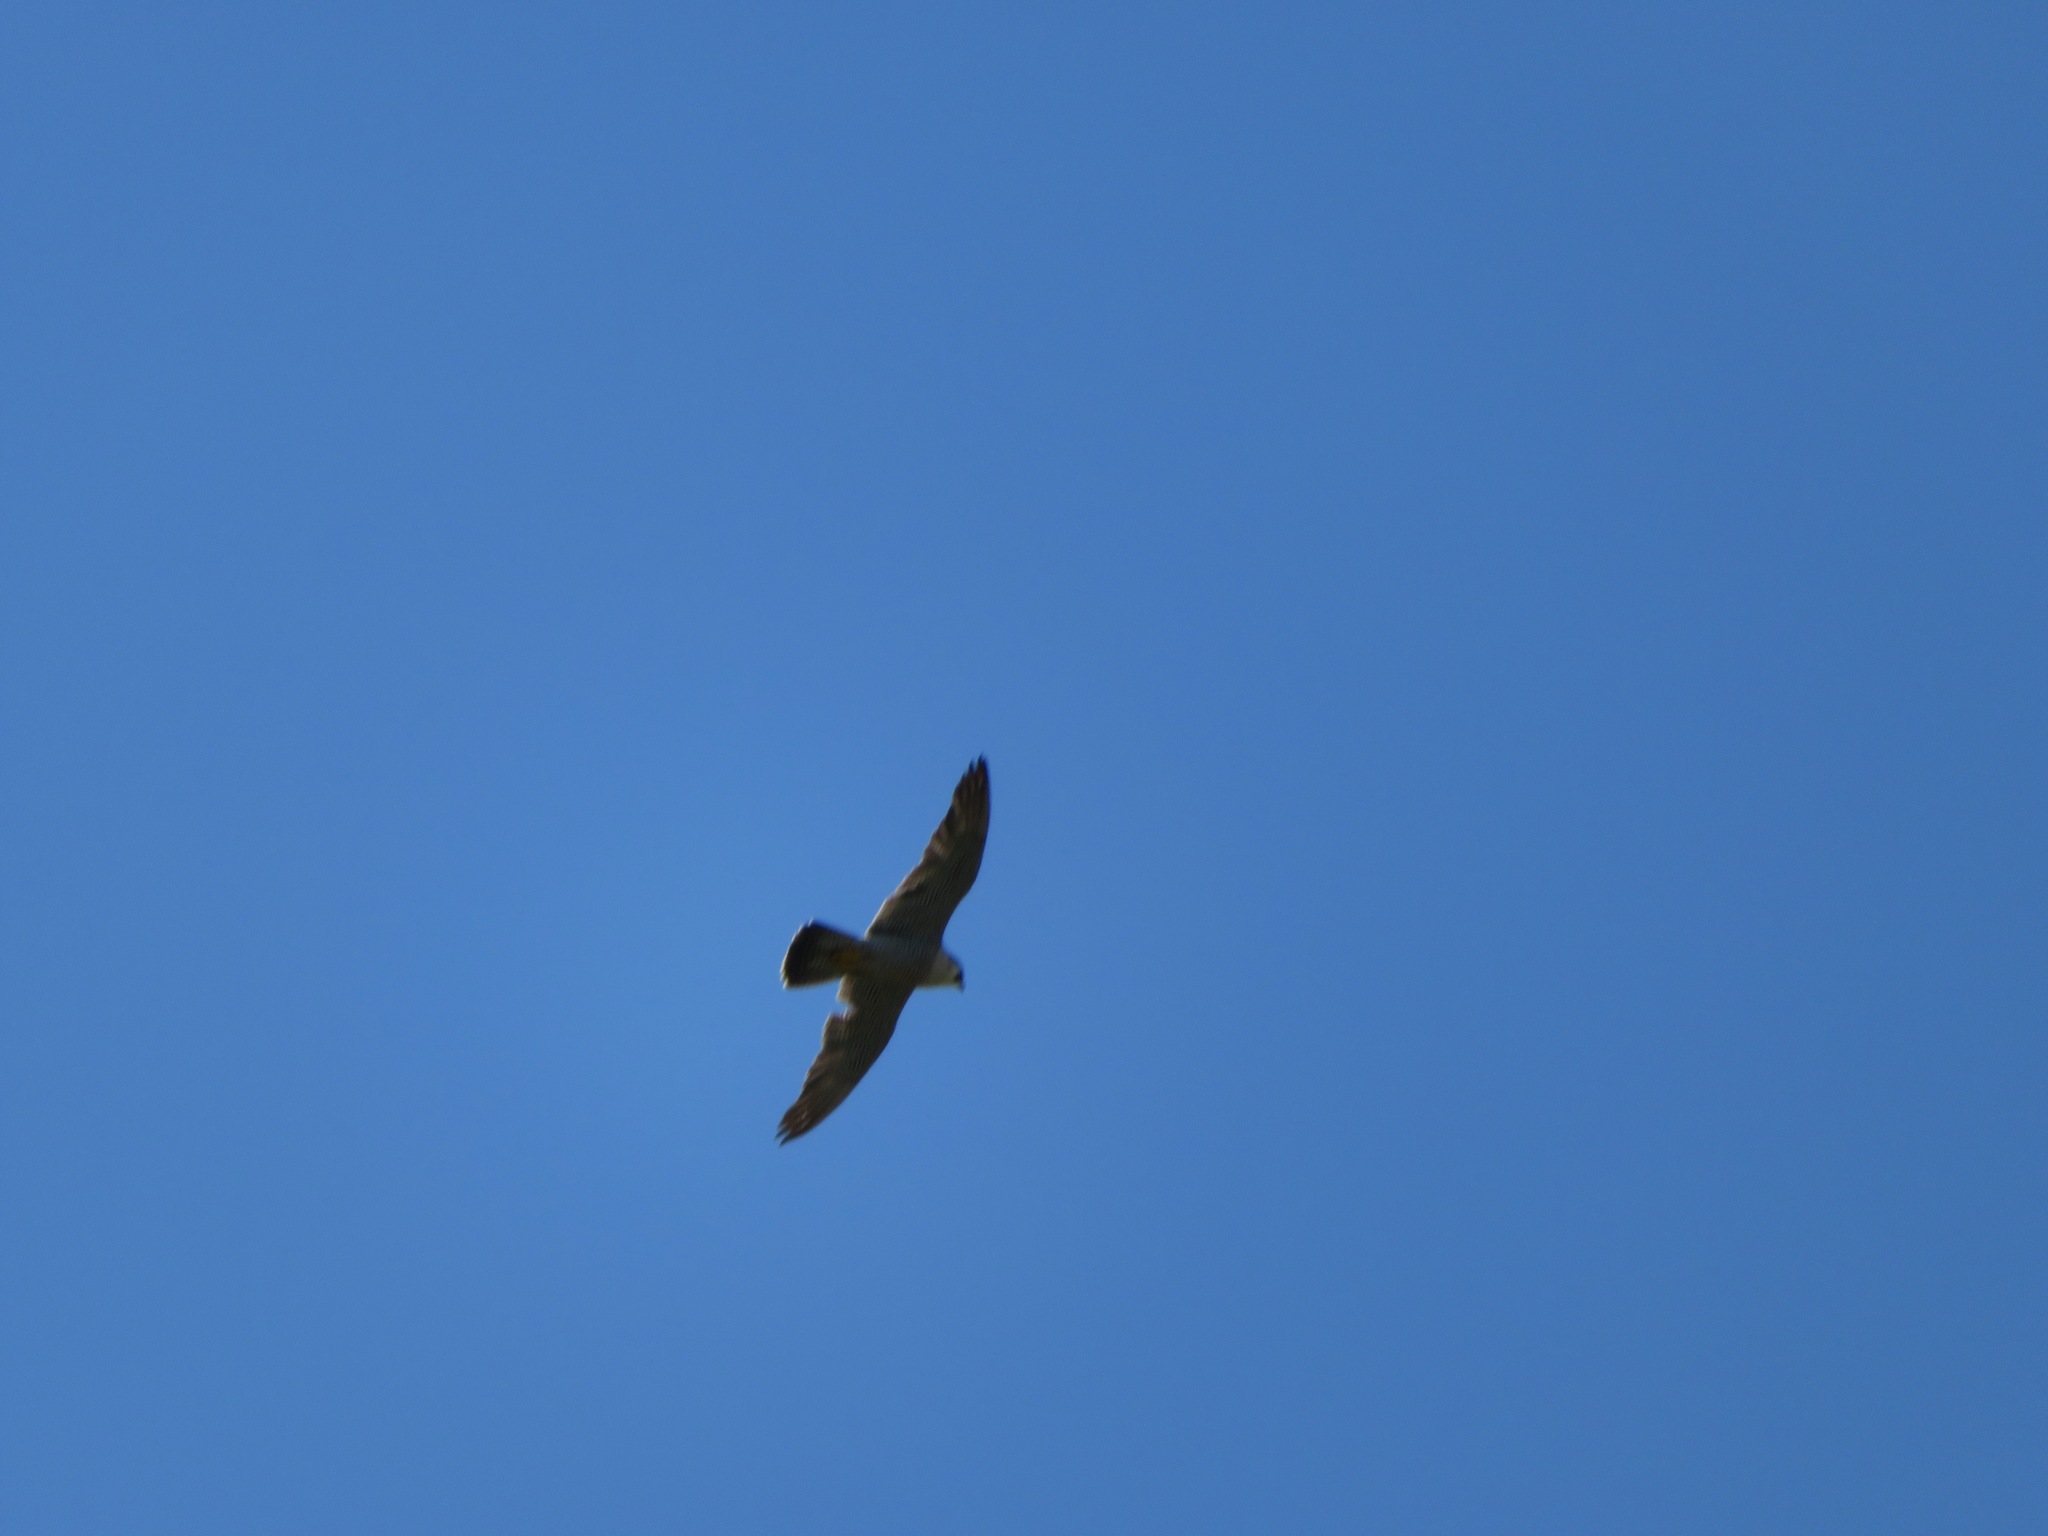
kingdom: Animalia
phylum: Chordata
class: Aves
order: Falconiformes
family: Falconidae
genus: Falco
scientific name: Falco peregrinus
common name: Peregrine falcon
